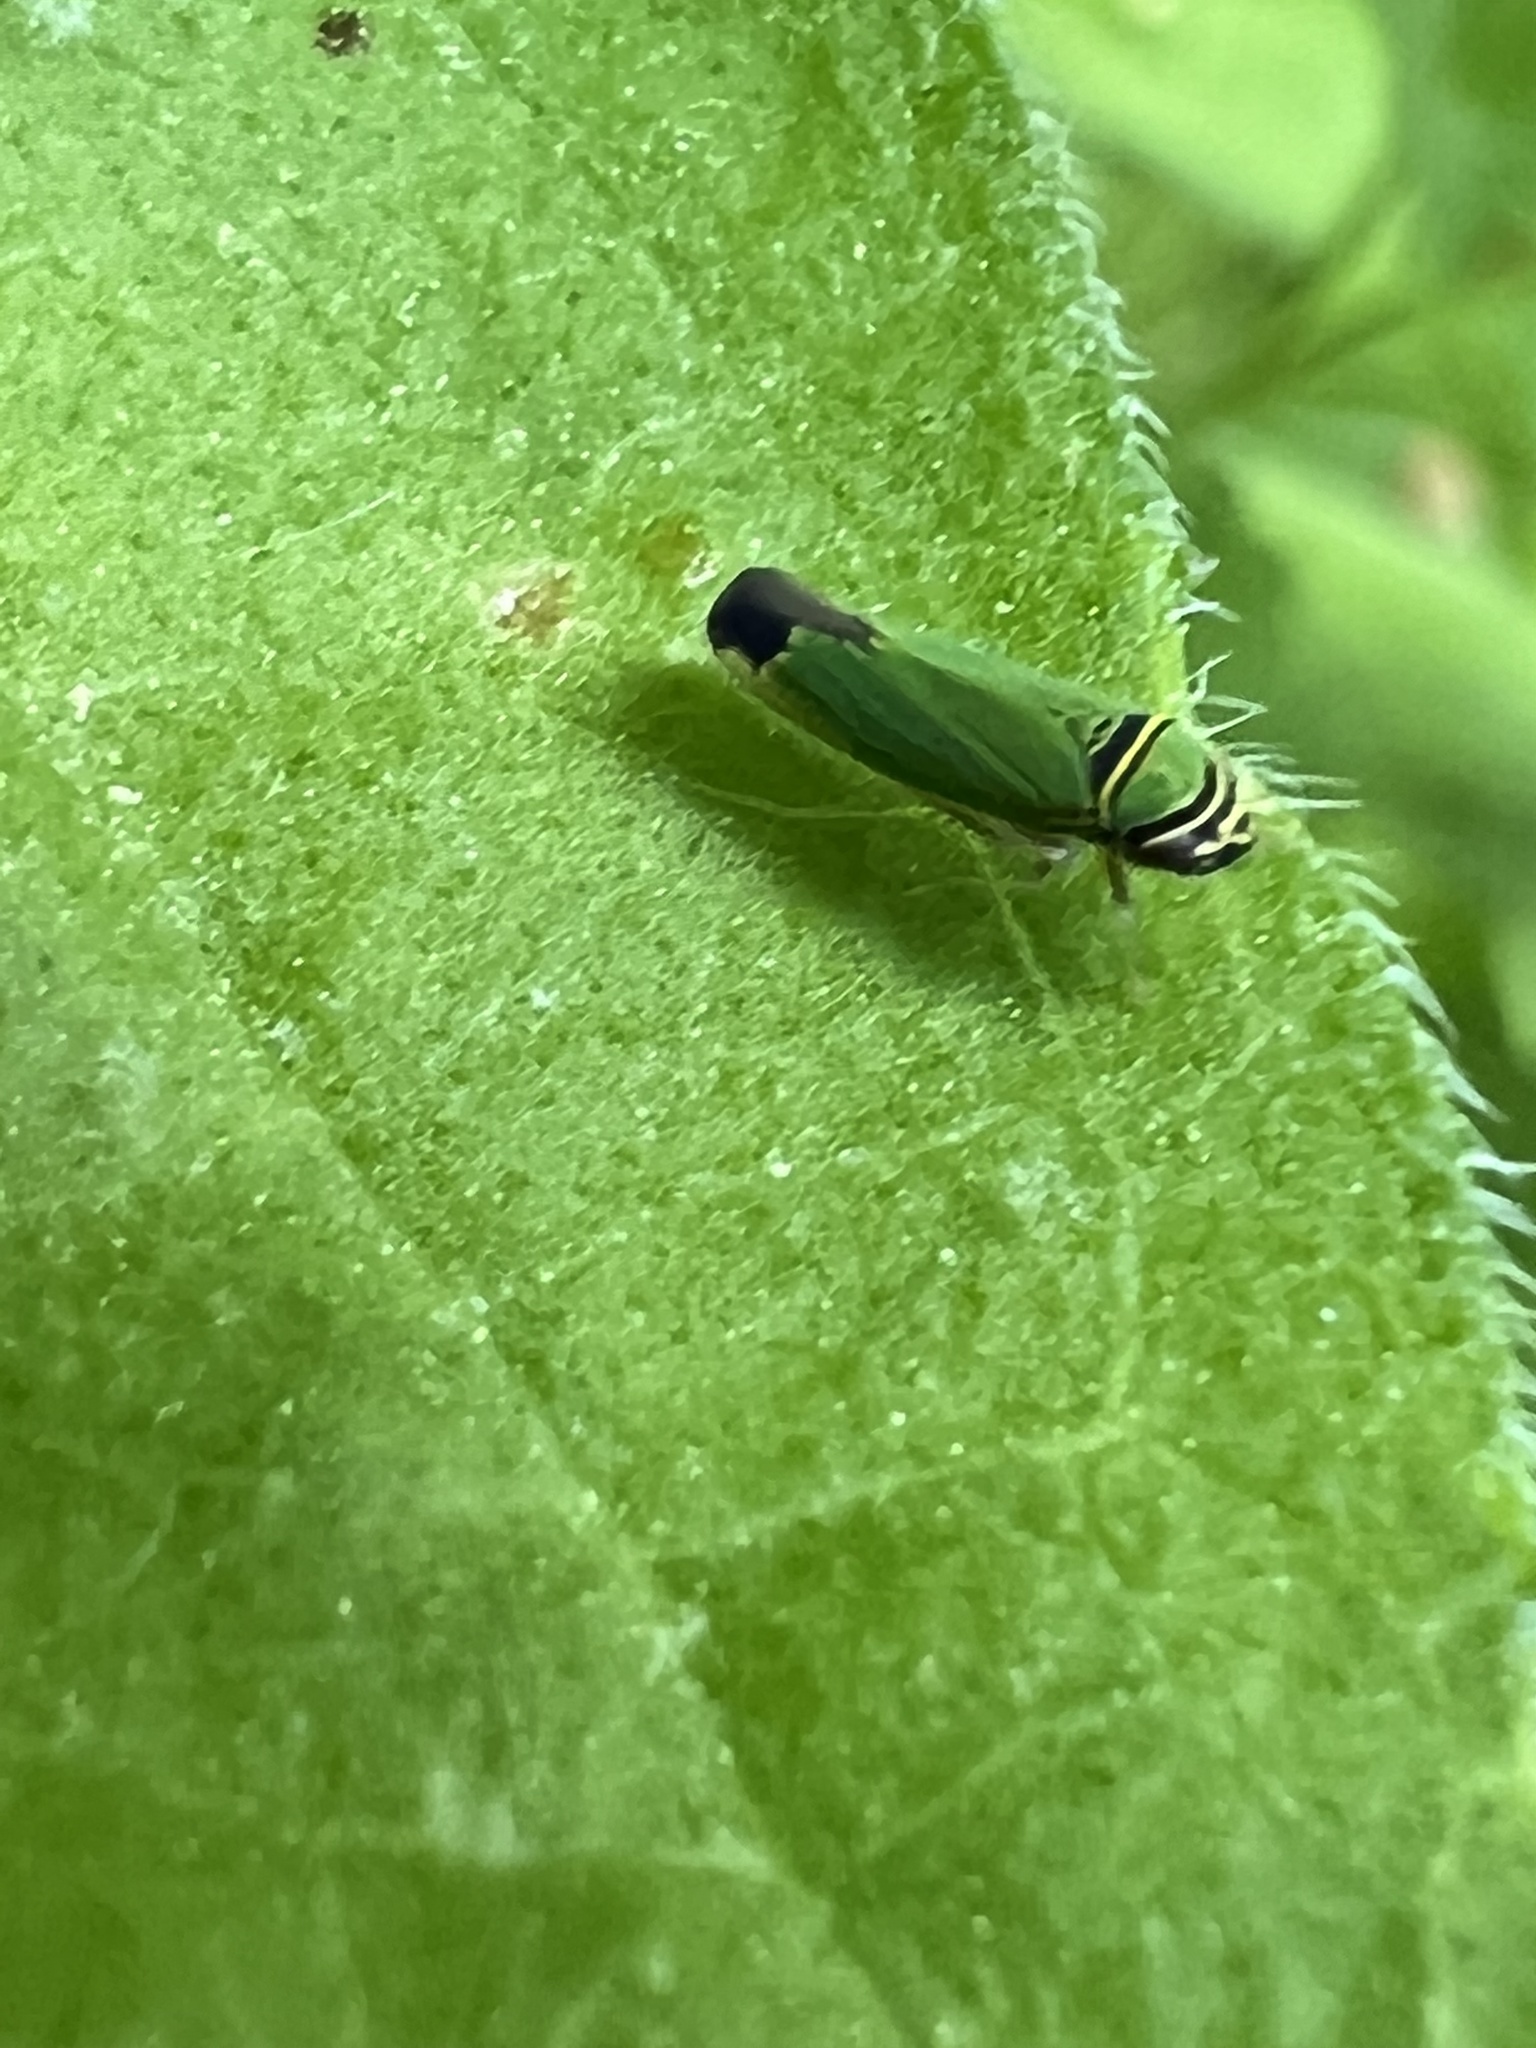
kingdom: Animalia
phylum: Arthropoda
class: Insecta
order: Hemiptera
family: Cicadellidae
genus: Tylozygus
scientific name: Tylozygus geometricus
